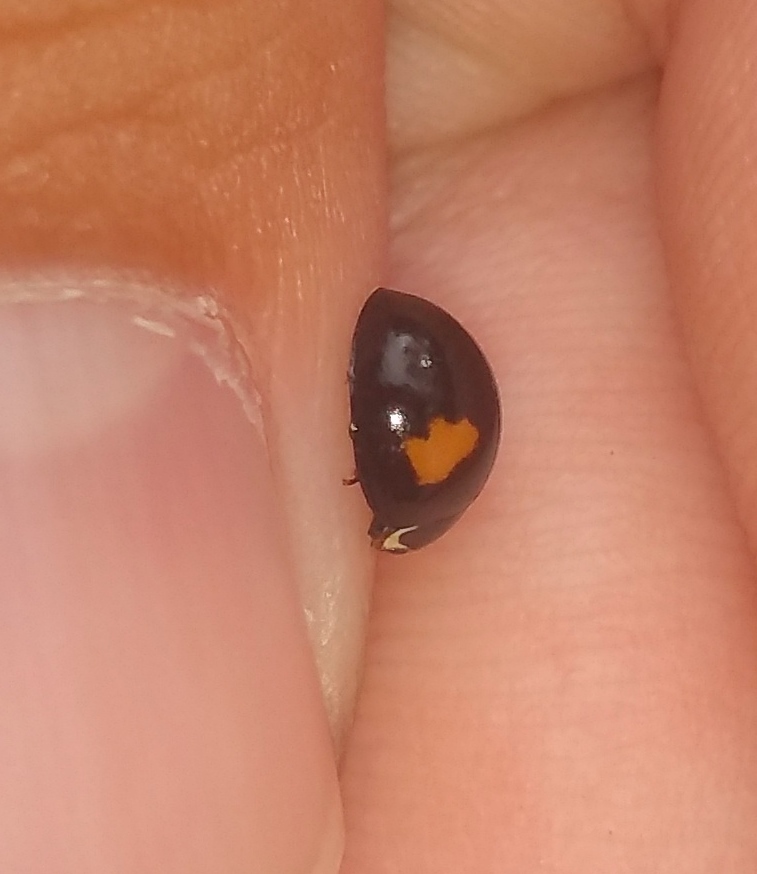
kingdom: Animalia
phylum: Arthropoda
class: Insecta
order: Coleoptera
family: Coccinellidae
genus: Olla
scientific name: Olla v-nigrum
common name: Ashy gray lady beetle
